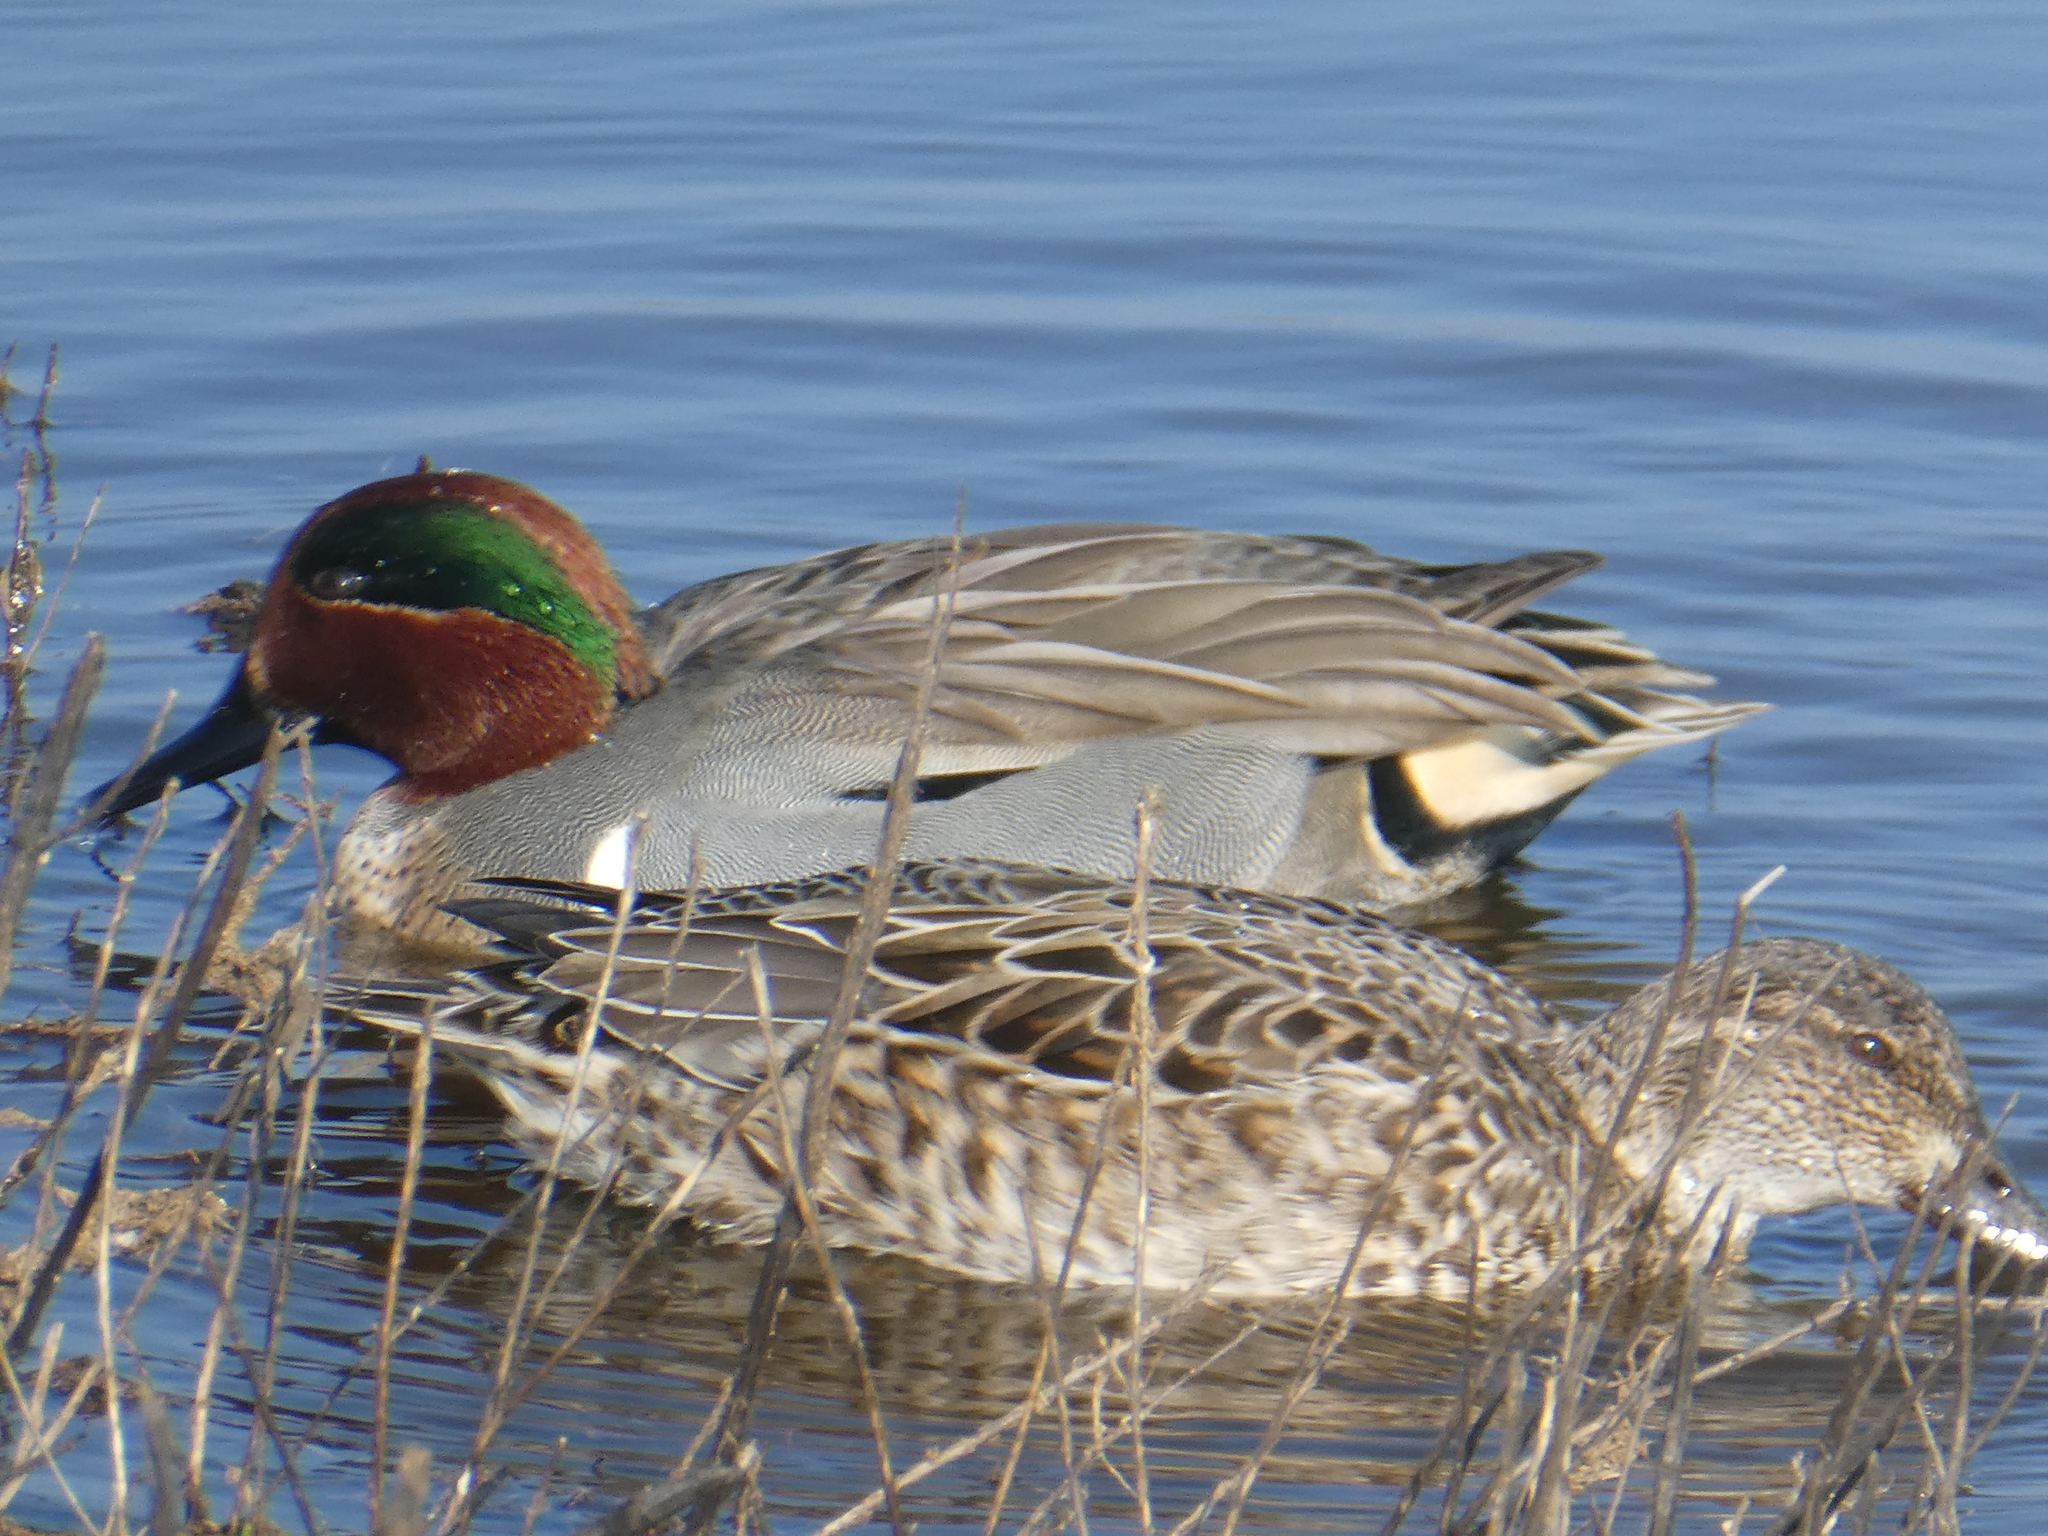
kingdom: Animalia
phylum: Chordata
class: Aves
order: Anseriformes
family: Anatidae
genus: Anas
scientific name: Anas crecca
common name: Eurasian teal
